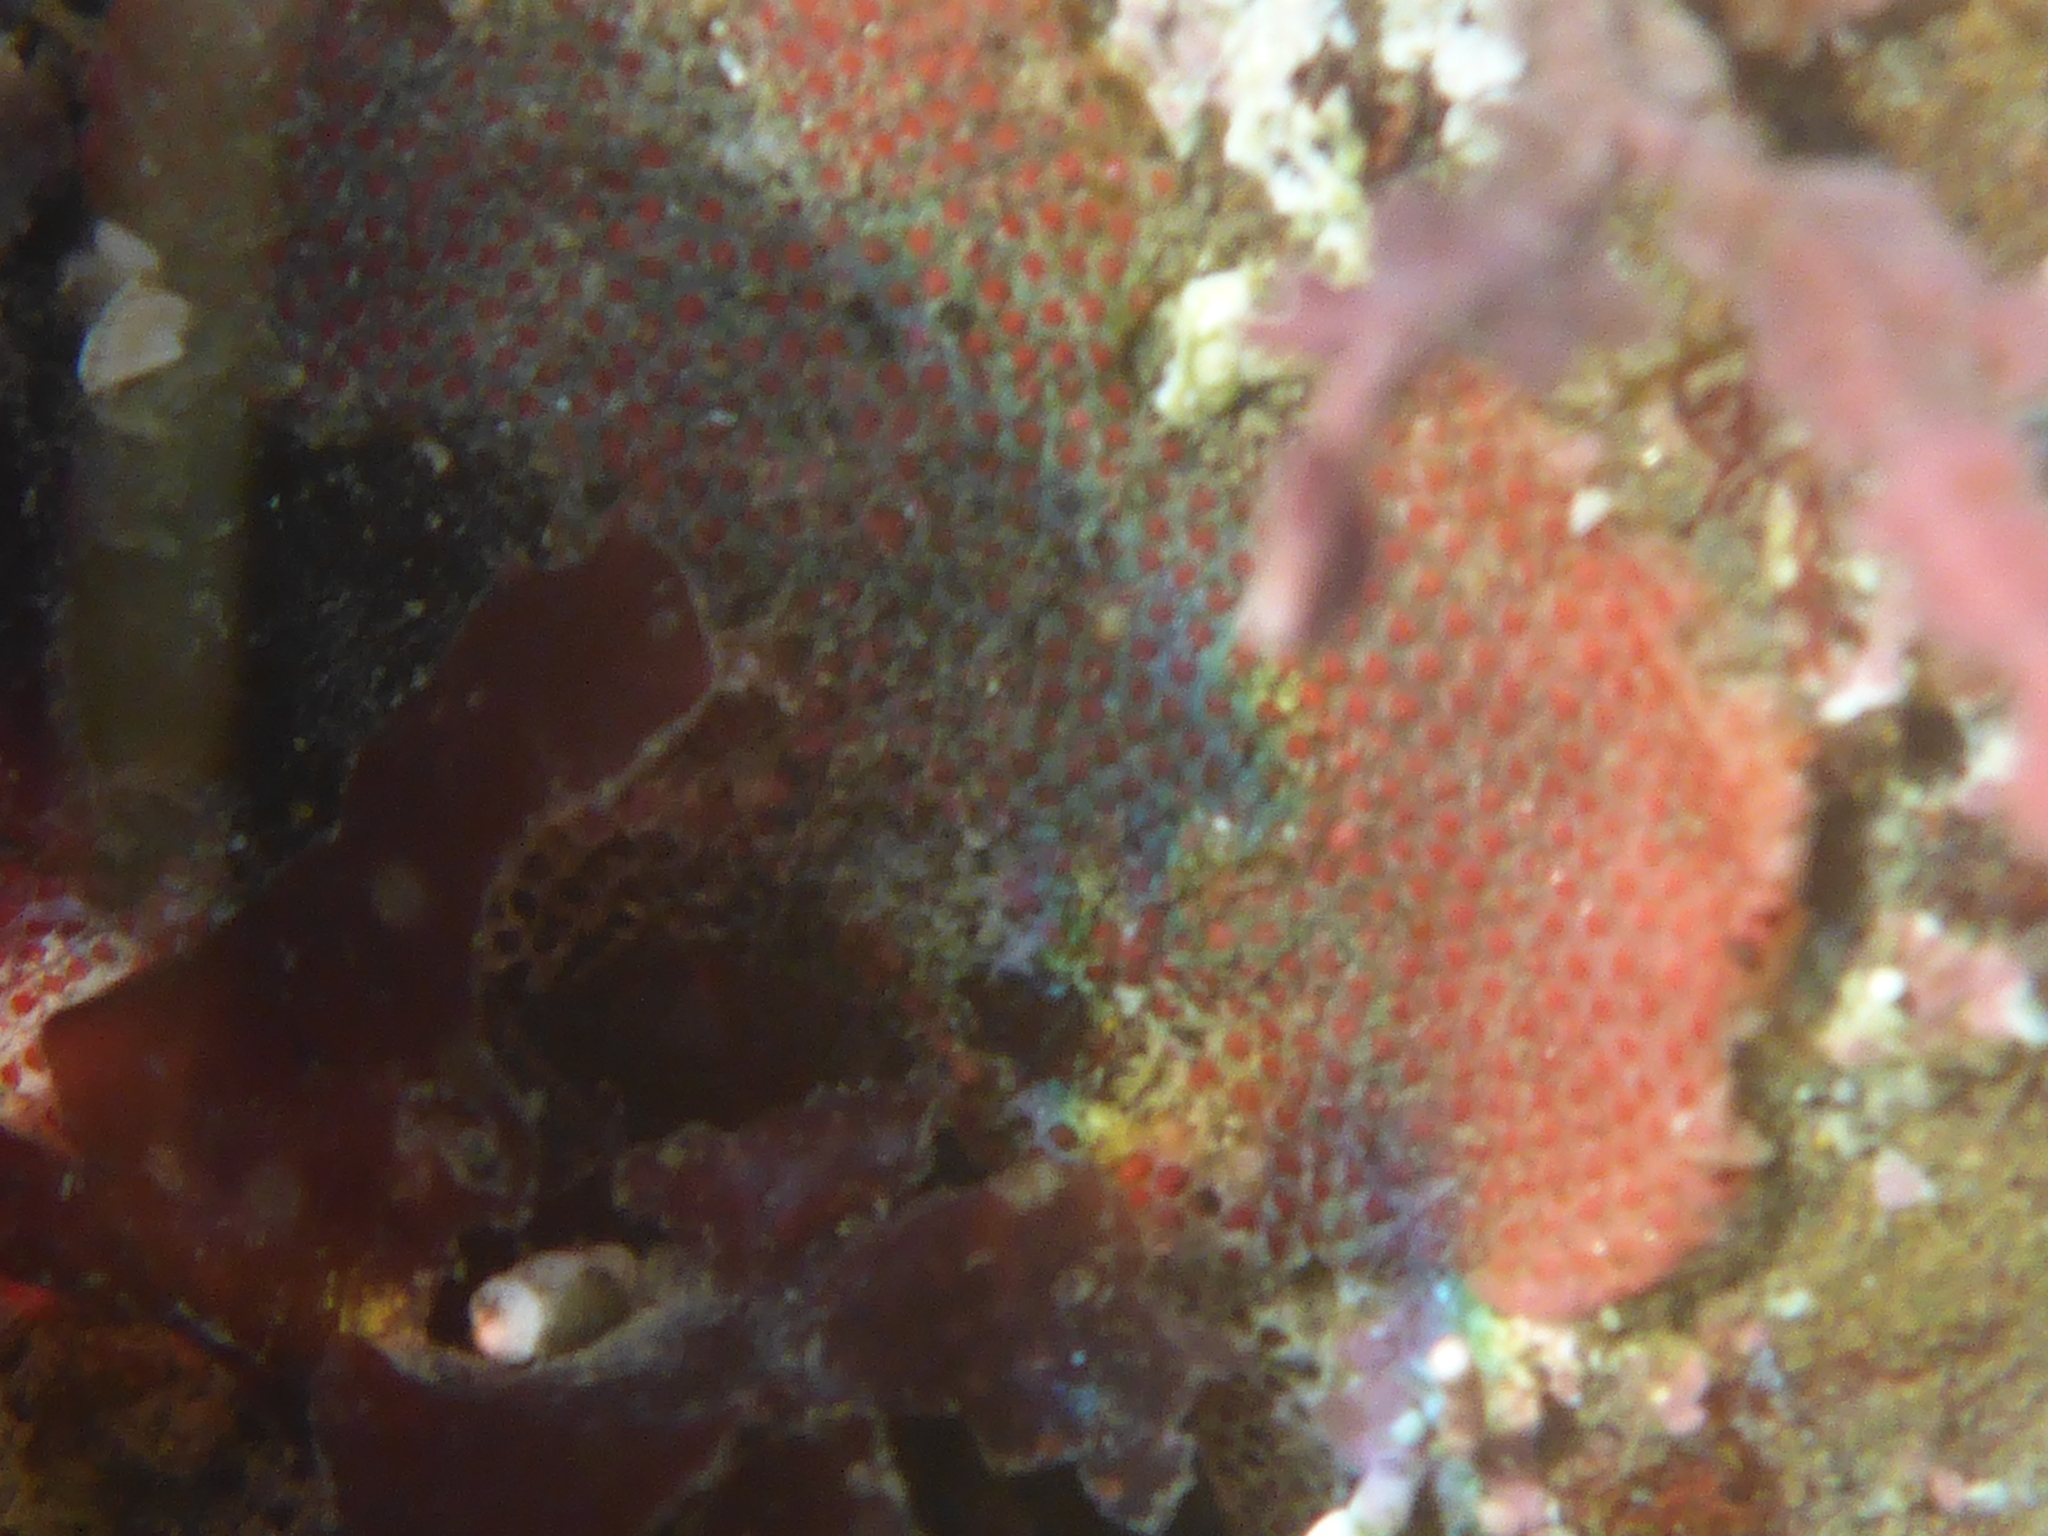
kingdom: Animalia
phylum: Bryozoa
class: Gymnolaemata
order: Cheilostomatida
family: Eurystomellidae
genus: Integripelta
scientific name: Integripelta bilabiata
